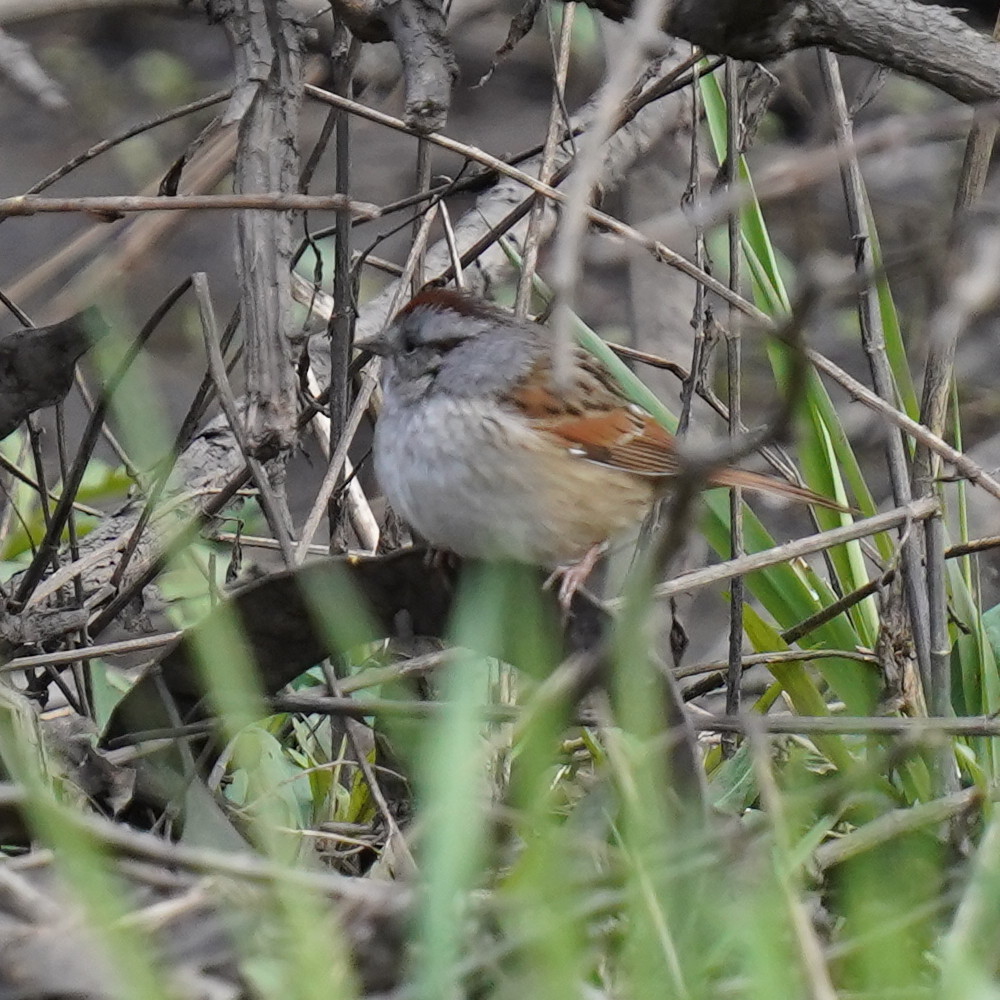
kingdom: Animalia
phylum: Chordata
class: Aves
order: Passeriformes
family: Passerellidae
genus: Melospiza
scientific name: Melospiza georgiana
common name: Swamp sparrow
